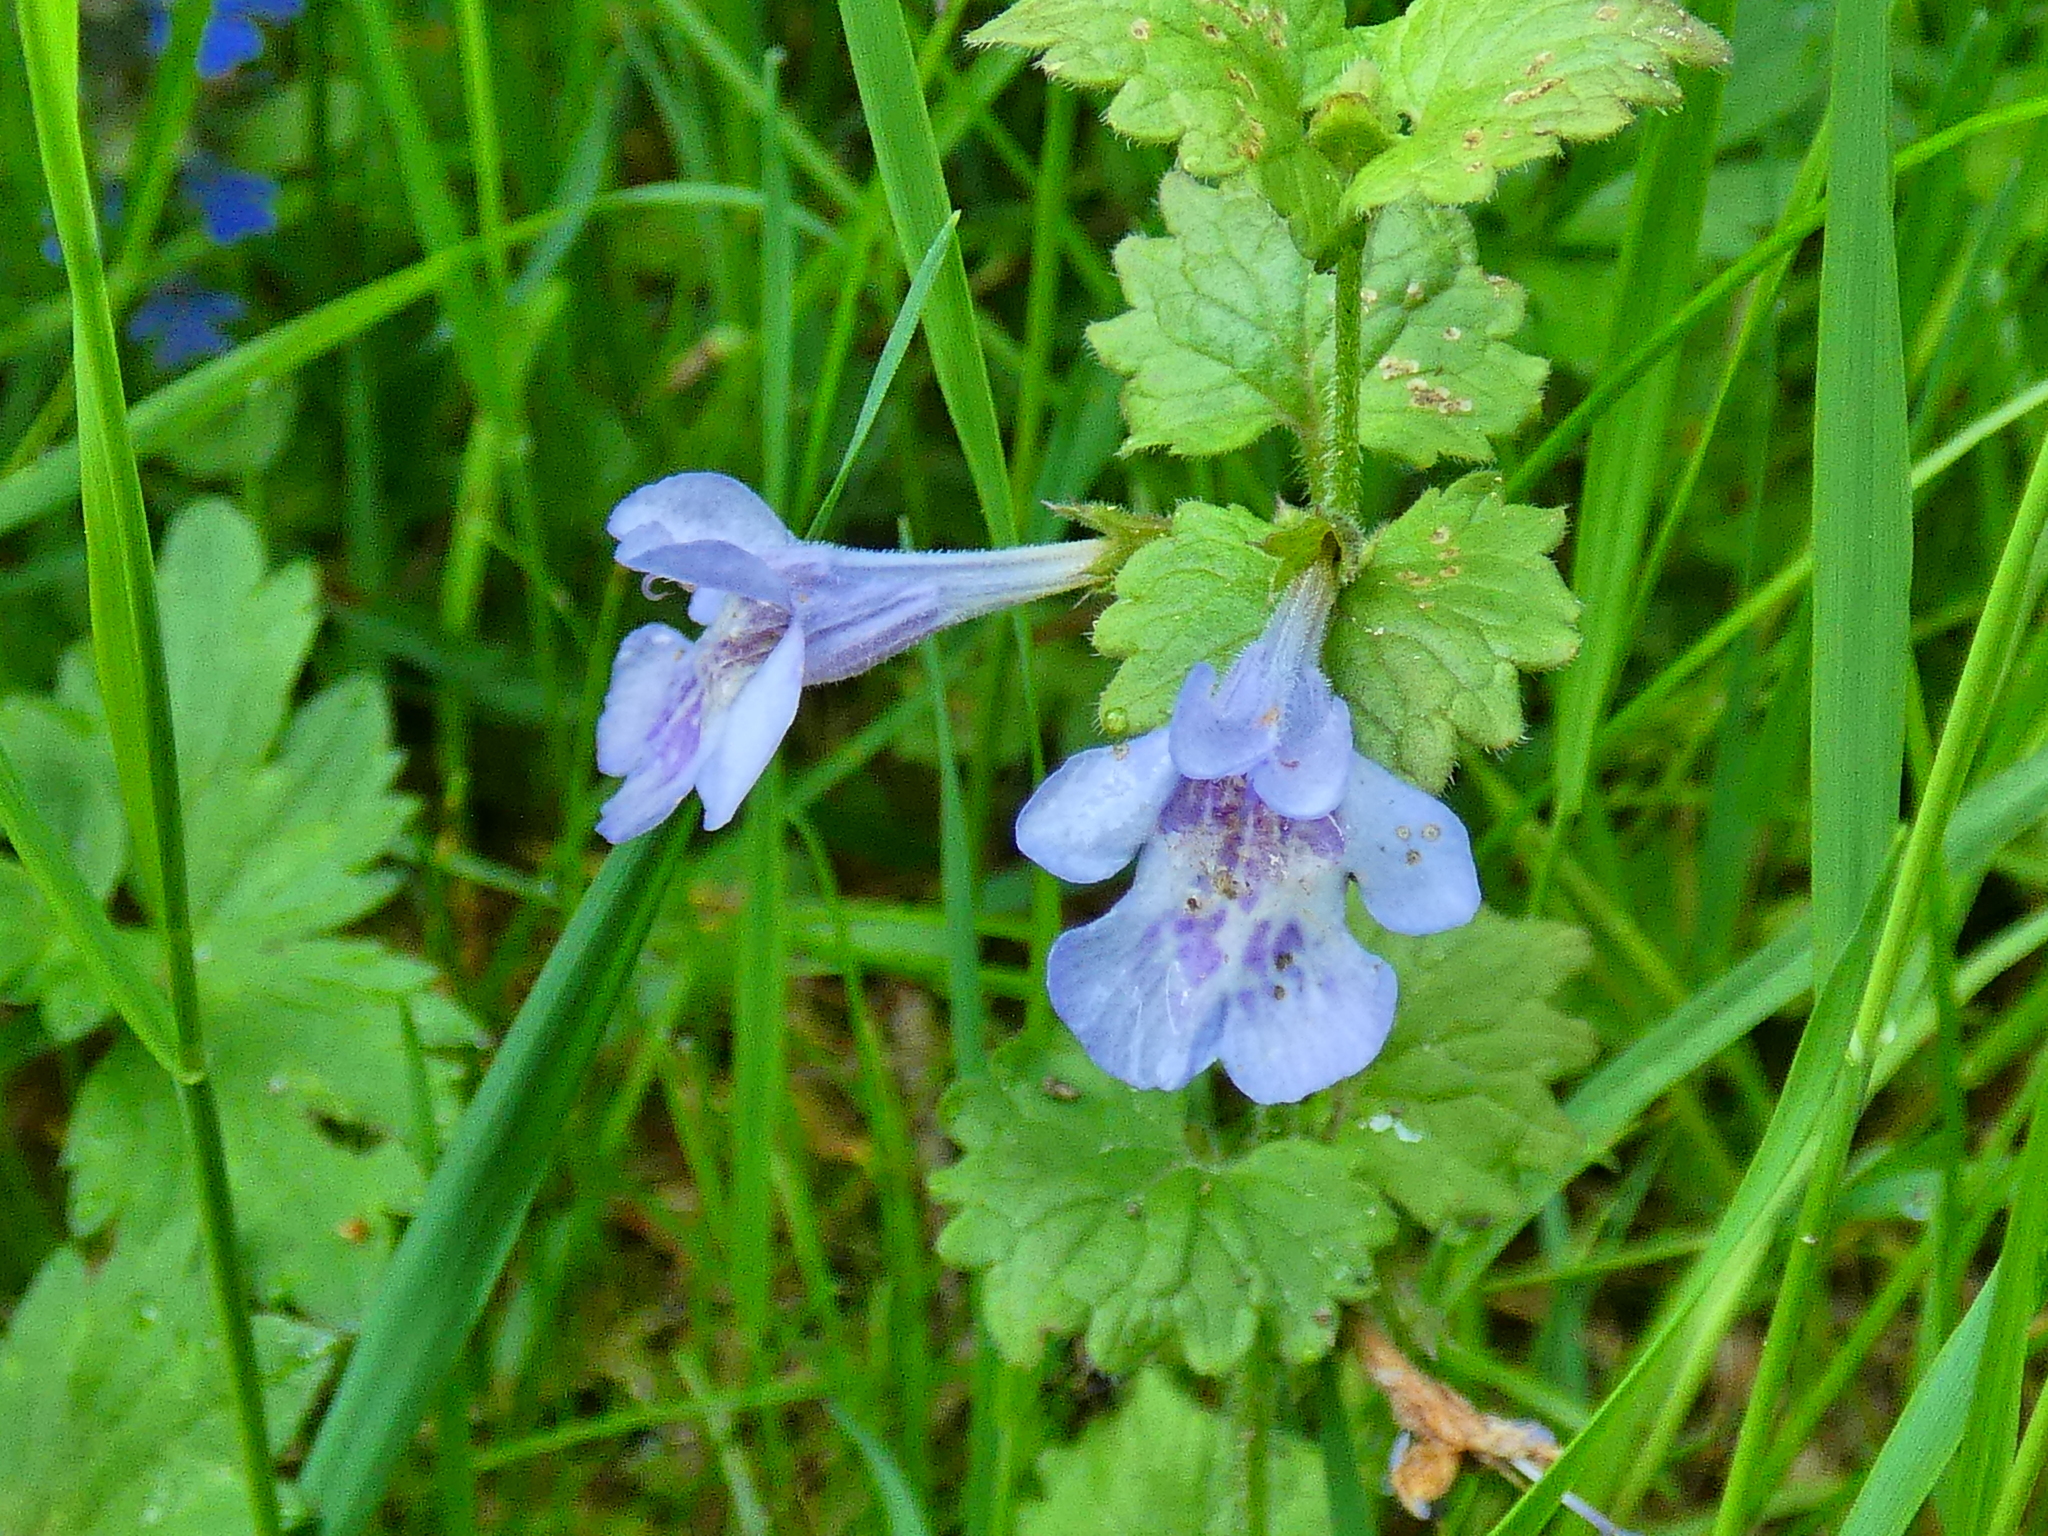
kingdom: Plantae
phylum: Tracheophyta
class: Magnoliopsida
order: Lamiales
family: Lamiaceae
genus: Glechoma
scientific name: Glechoma hederacea
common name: Ground ivy
